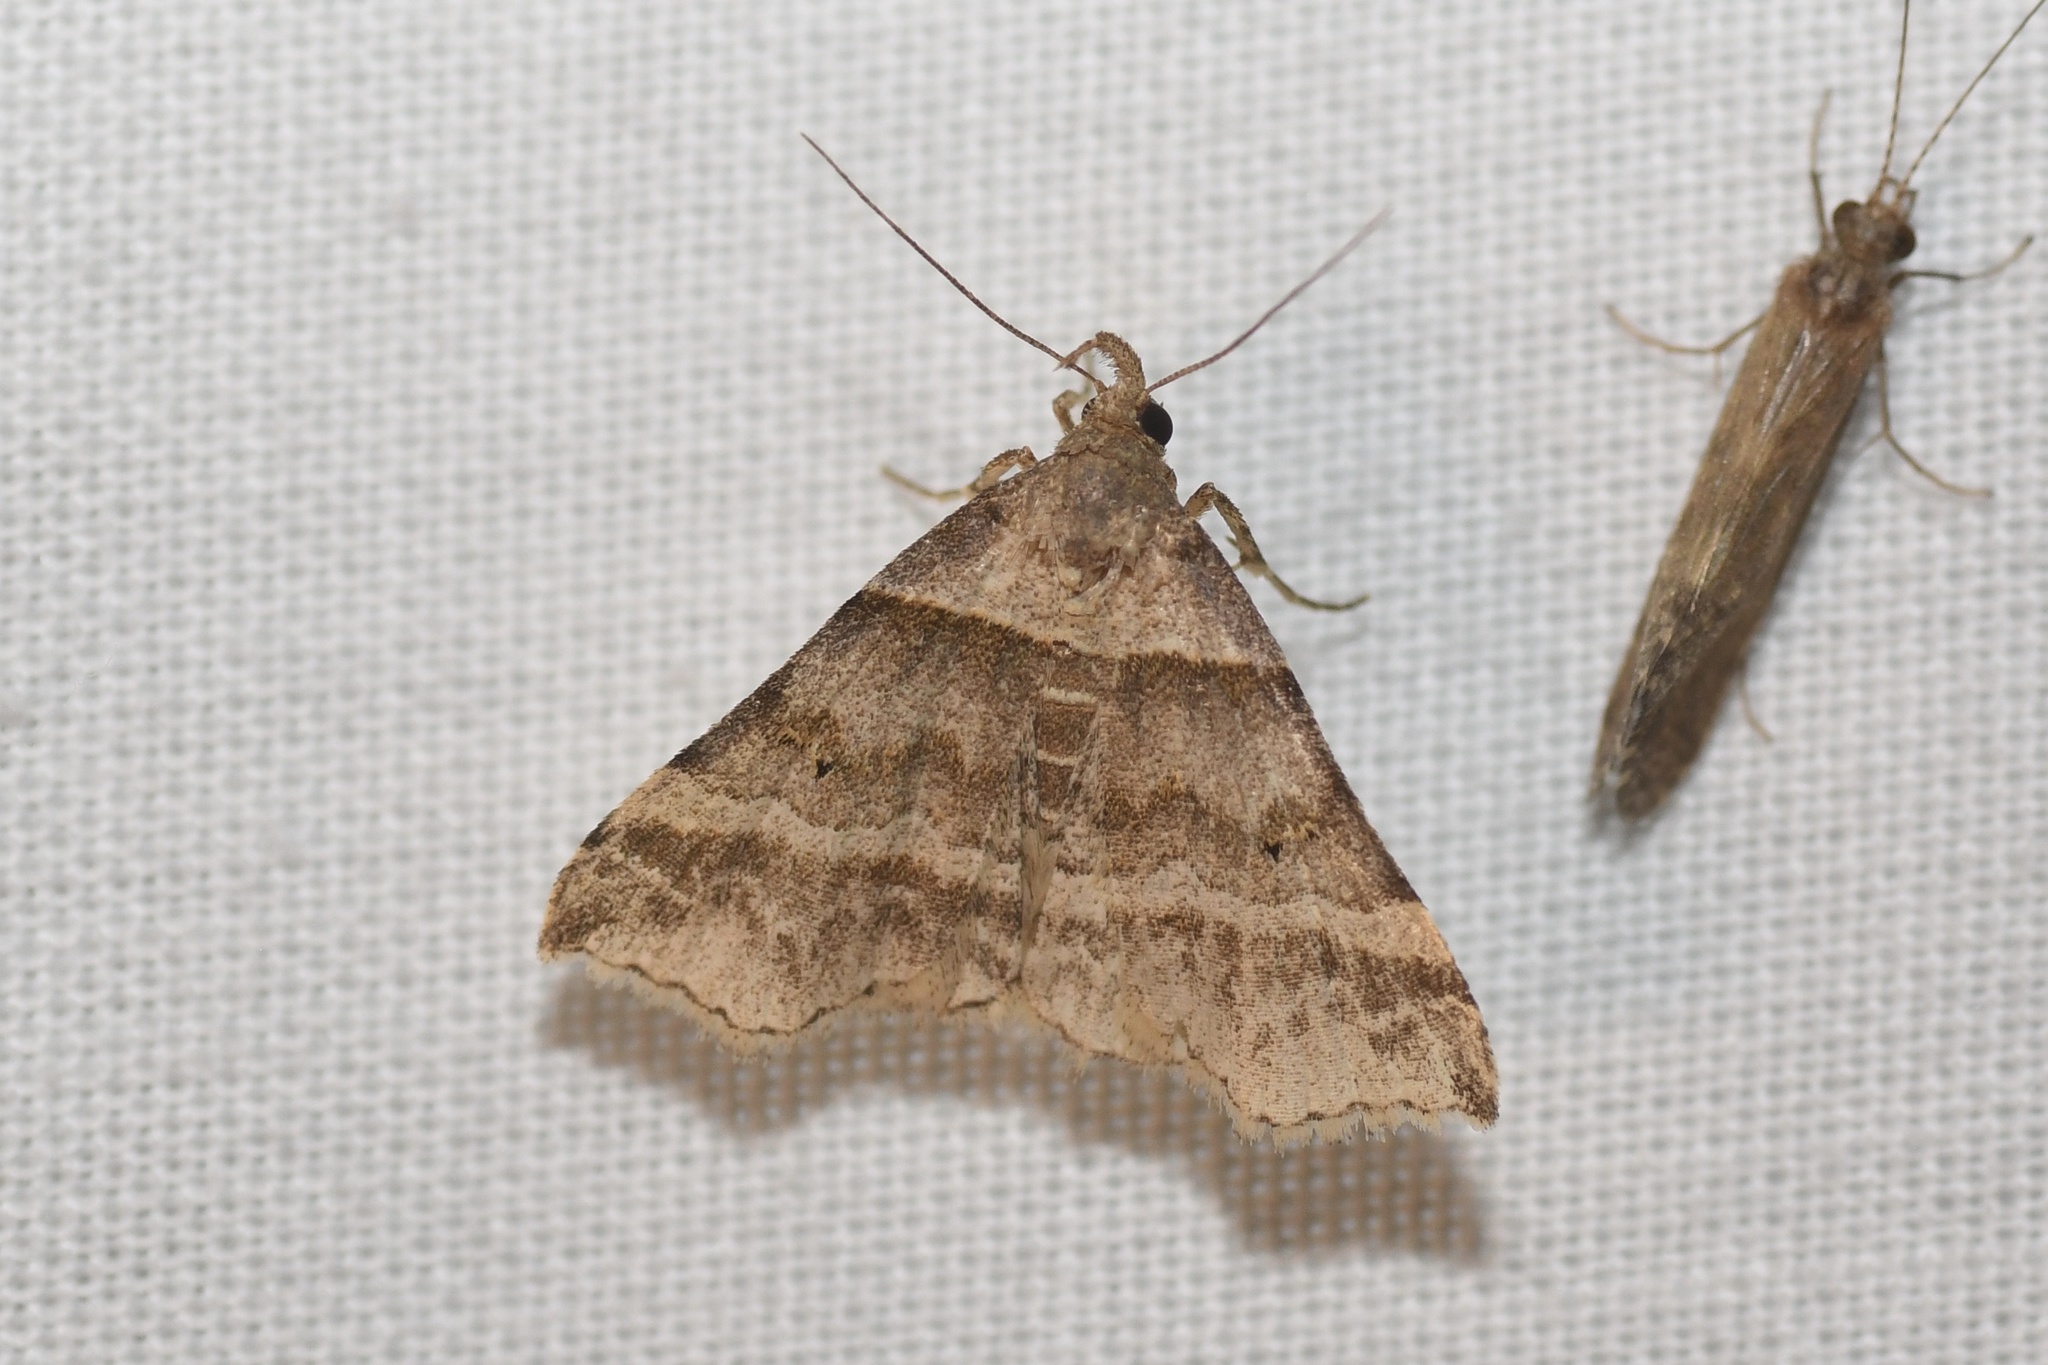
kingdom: Animalia
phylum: Arthropoda
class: Insecta
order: Lepidoptera
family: Erebidae
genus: Phaeolita
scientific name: Phaeolita pyramusalis
